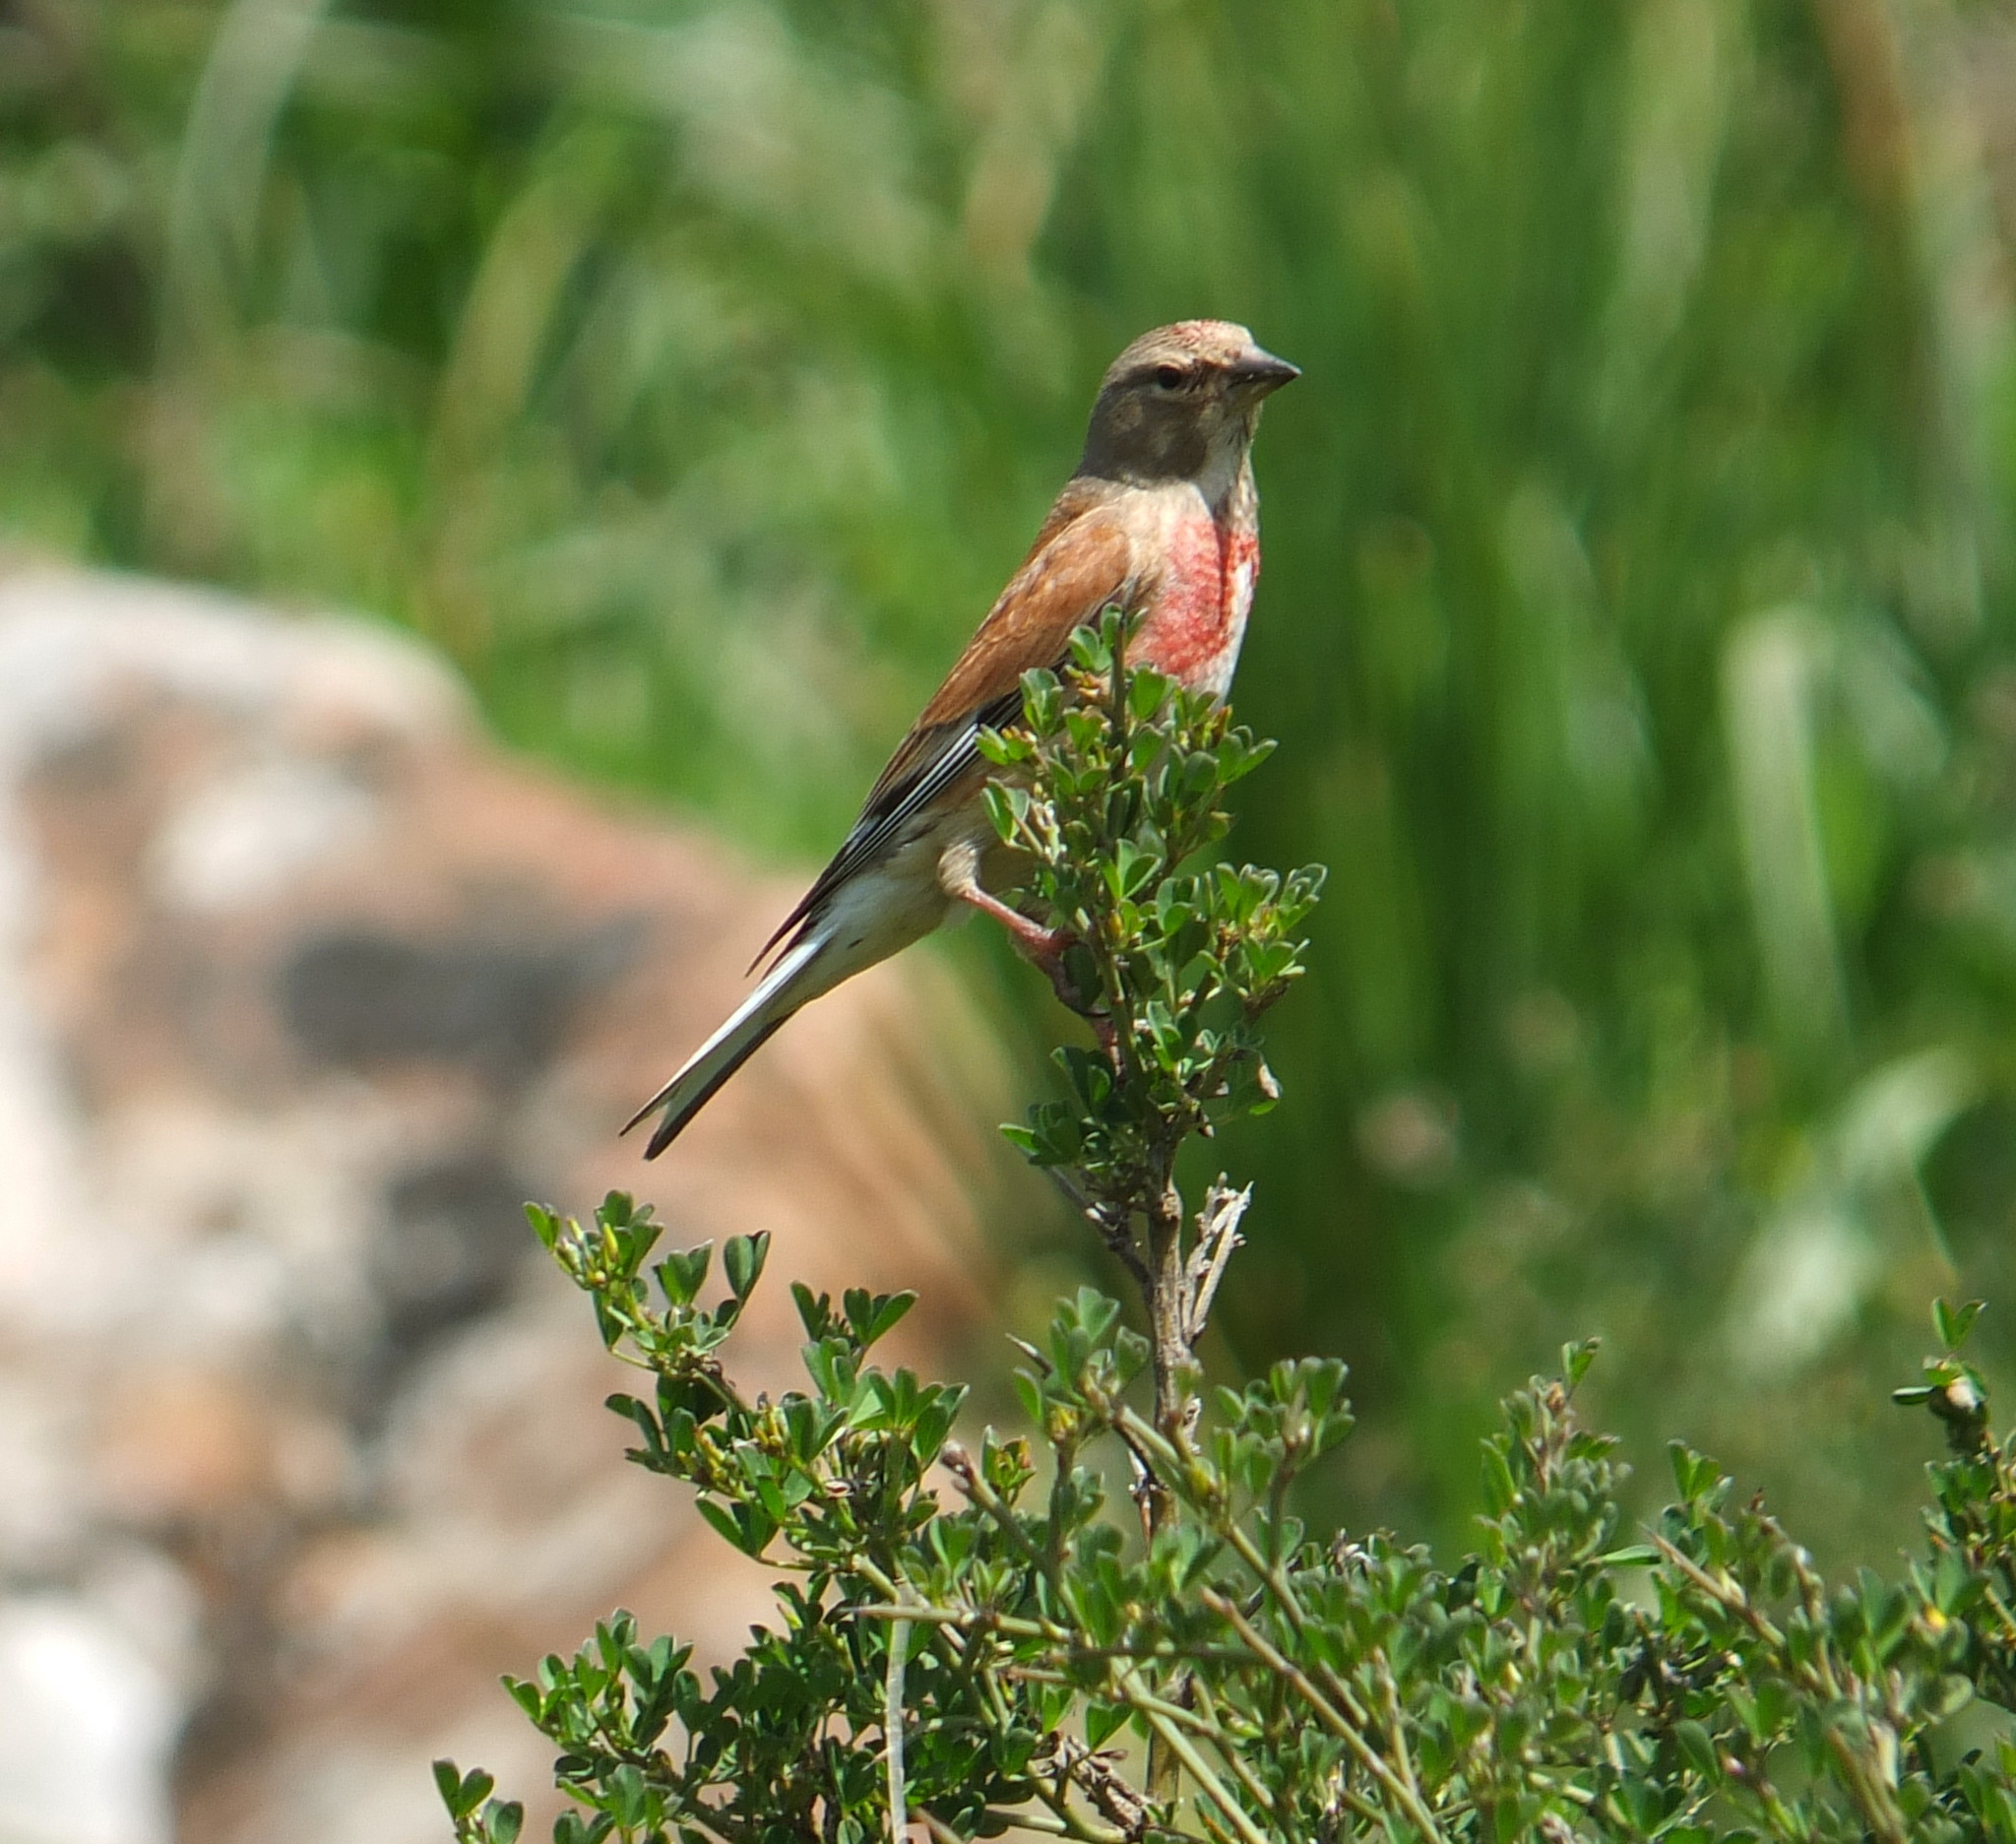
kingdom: Animalia
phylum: Chordata
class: Aves
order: Passeriformes
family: Fringillidae
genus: Linaria
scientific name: Linaria cannabina
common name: Common linnet
